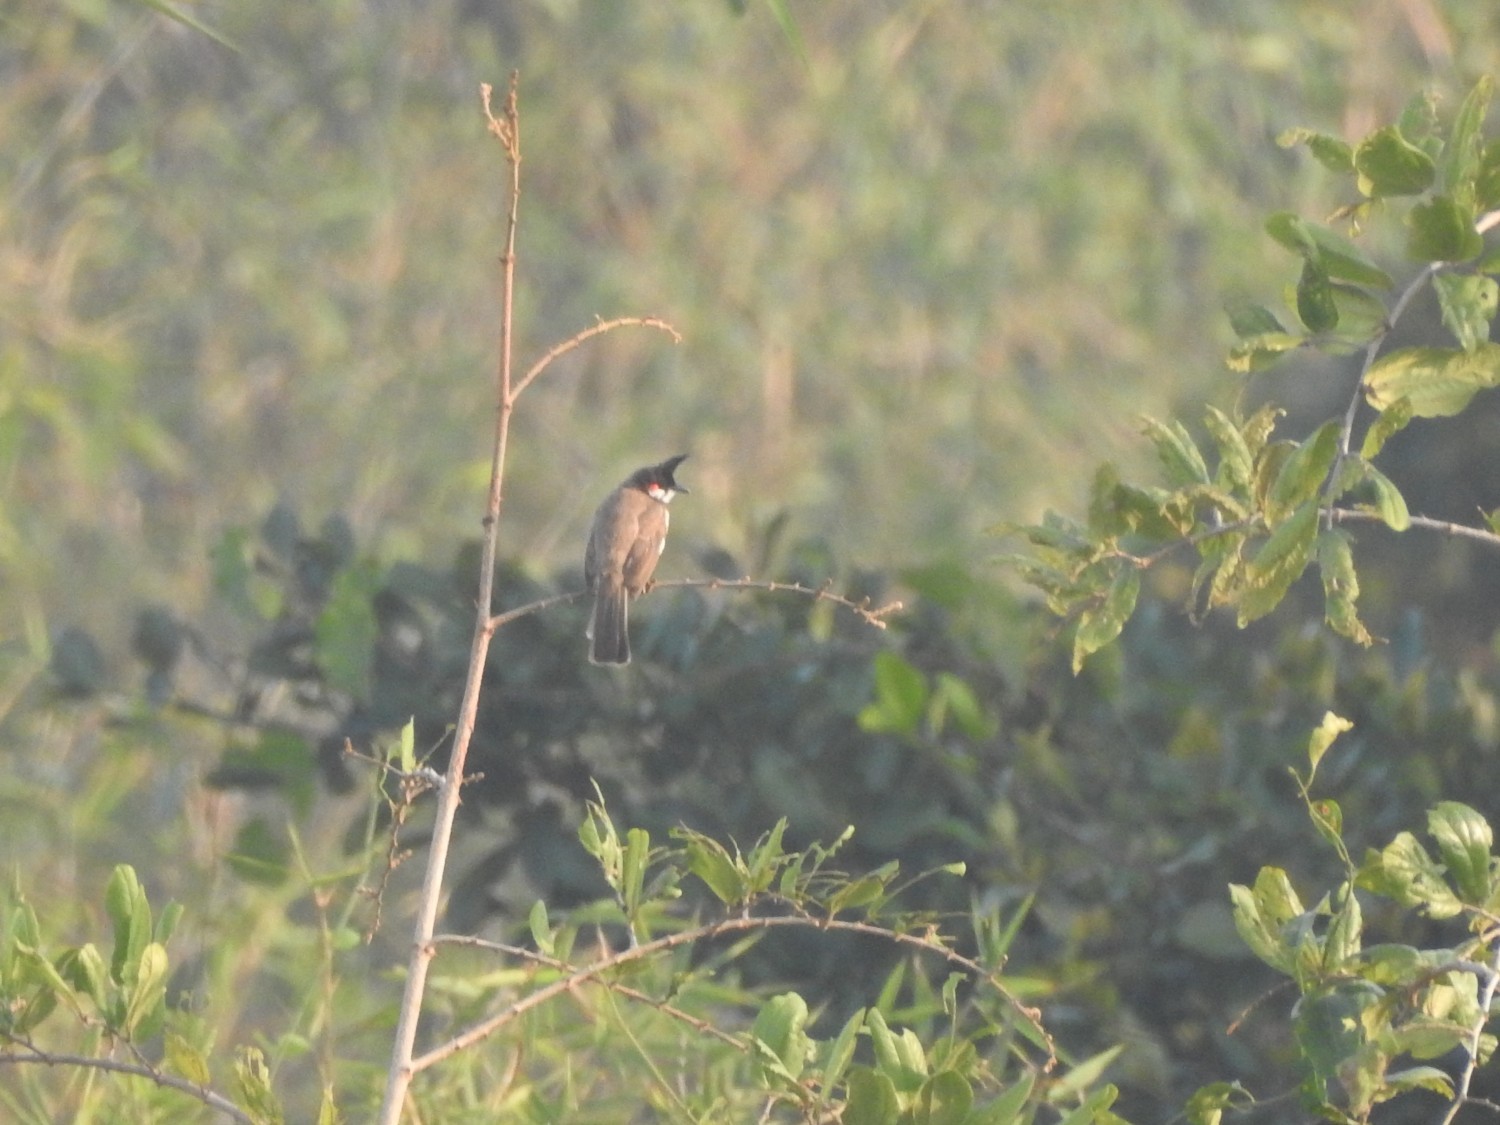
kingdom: Animalia
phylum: Chordata
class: Aves
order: Passeriformes
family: Pycnonotidae
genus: Pycnonotus
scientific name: Pycnonotus jocosus
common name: Red-whiskered bulbul
